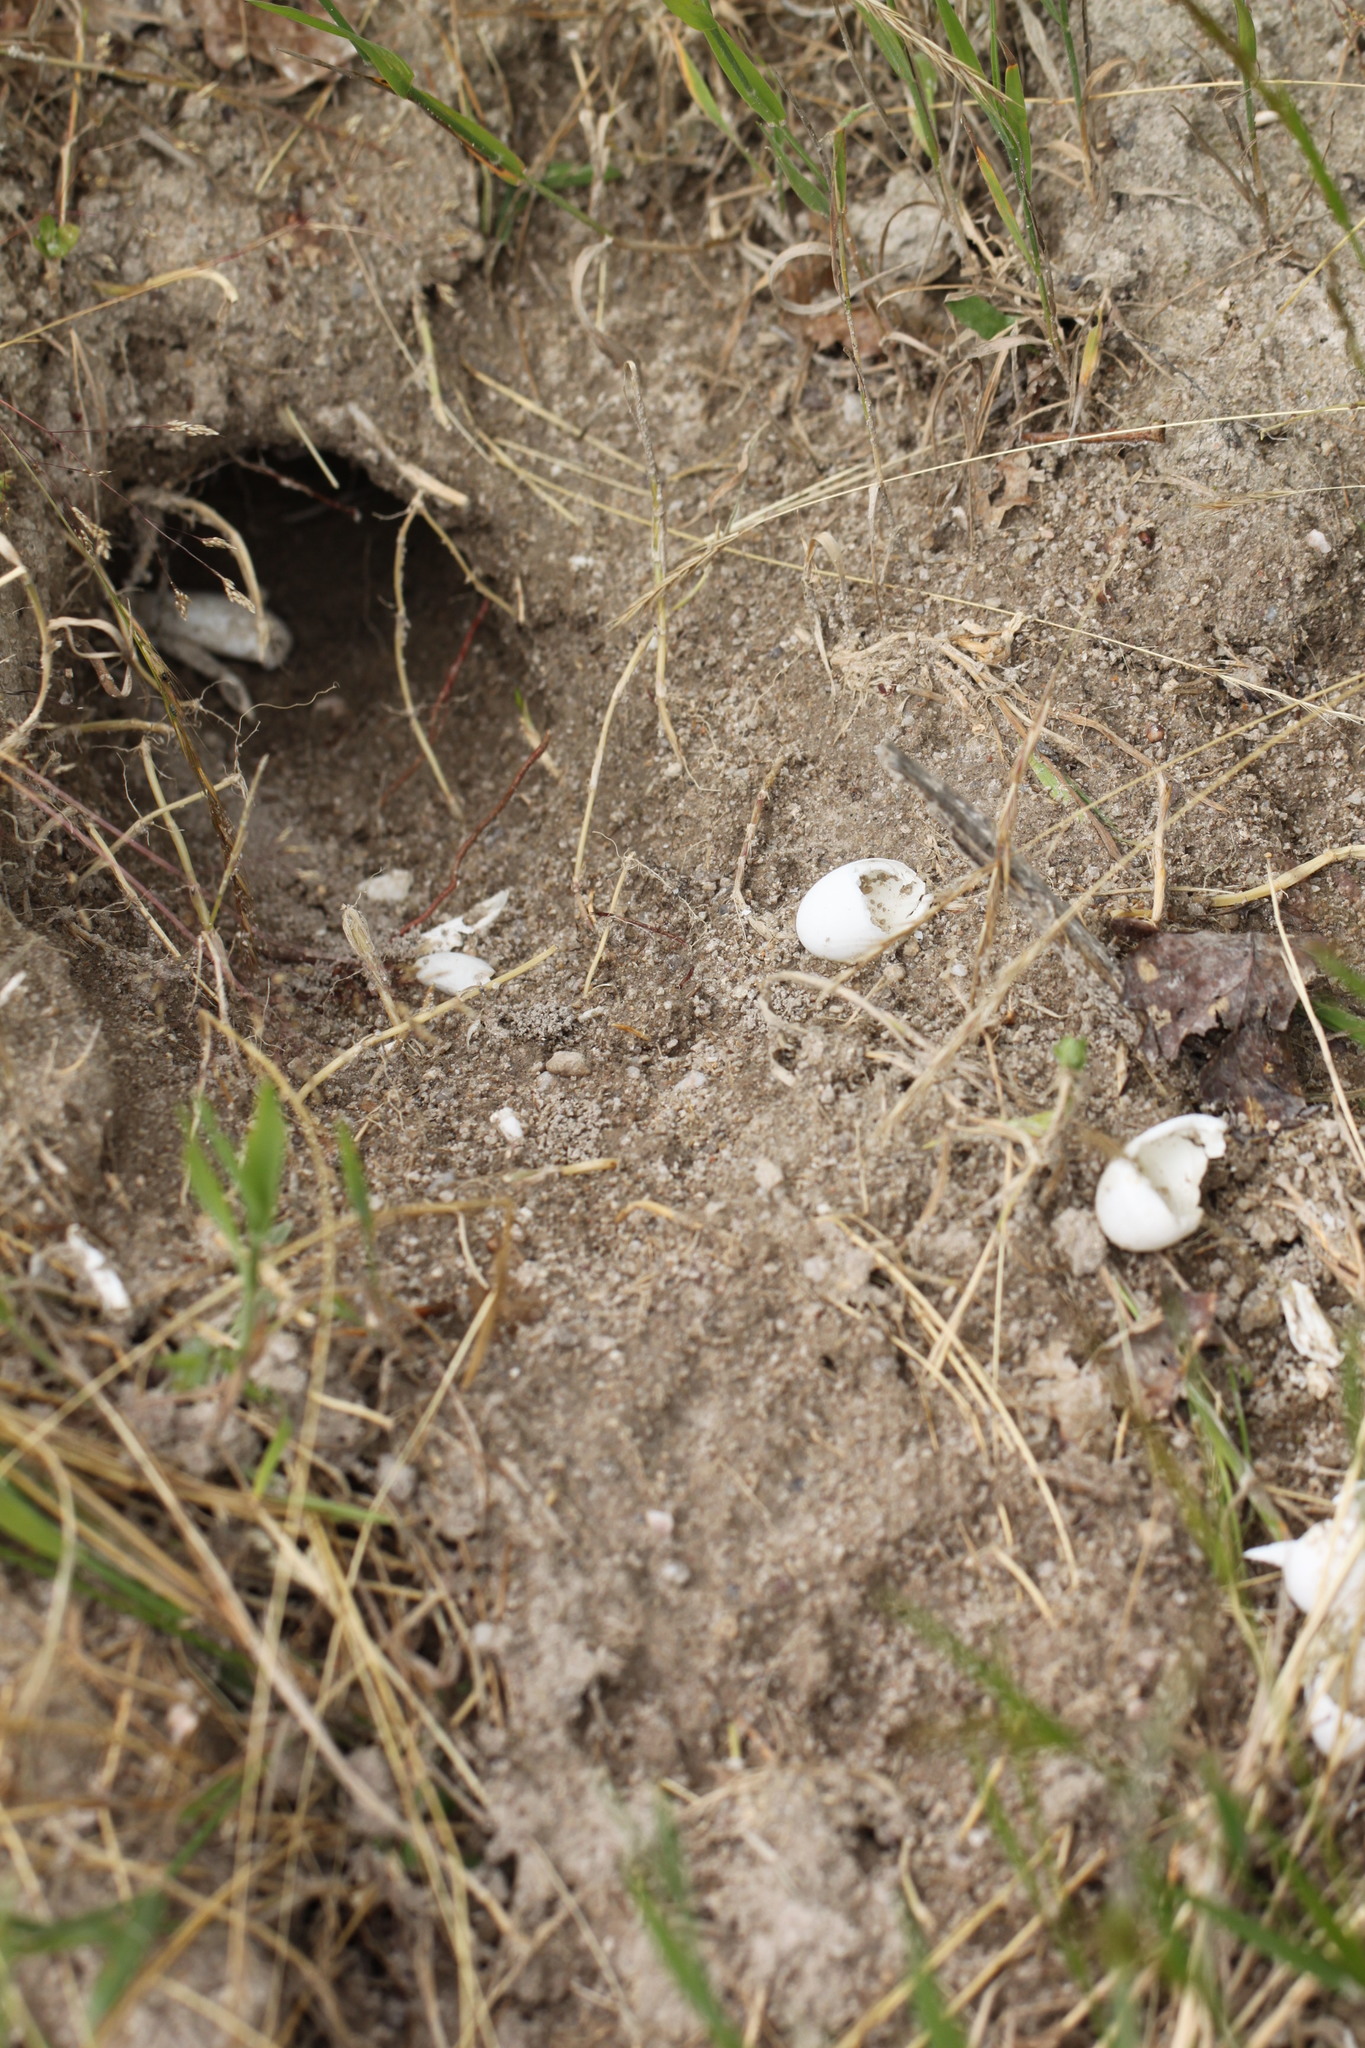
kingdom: Animalia
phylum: Chordata
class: Testudines
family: Emydidae
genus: Emys
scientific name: Emys orbicularis
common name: European pond turtle
